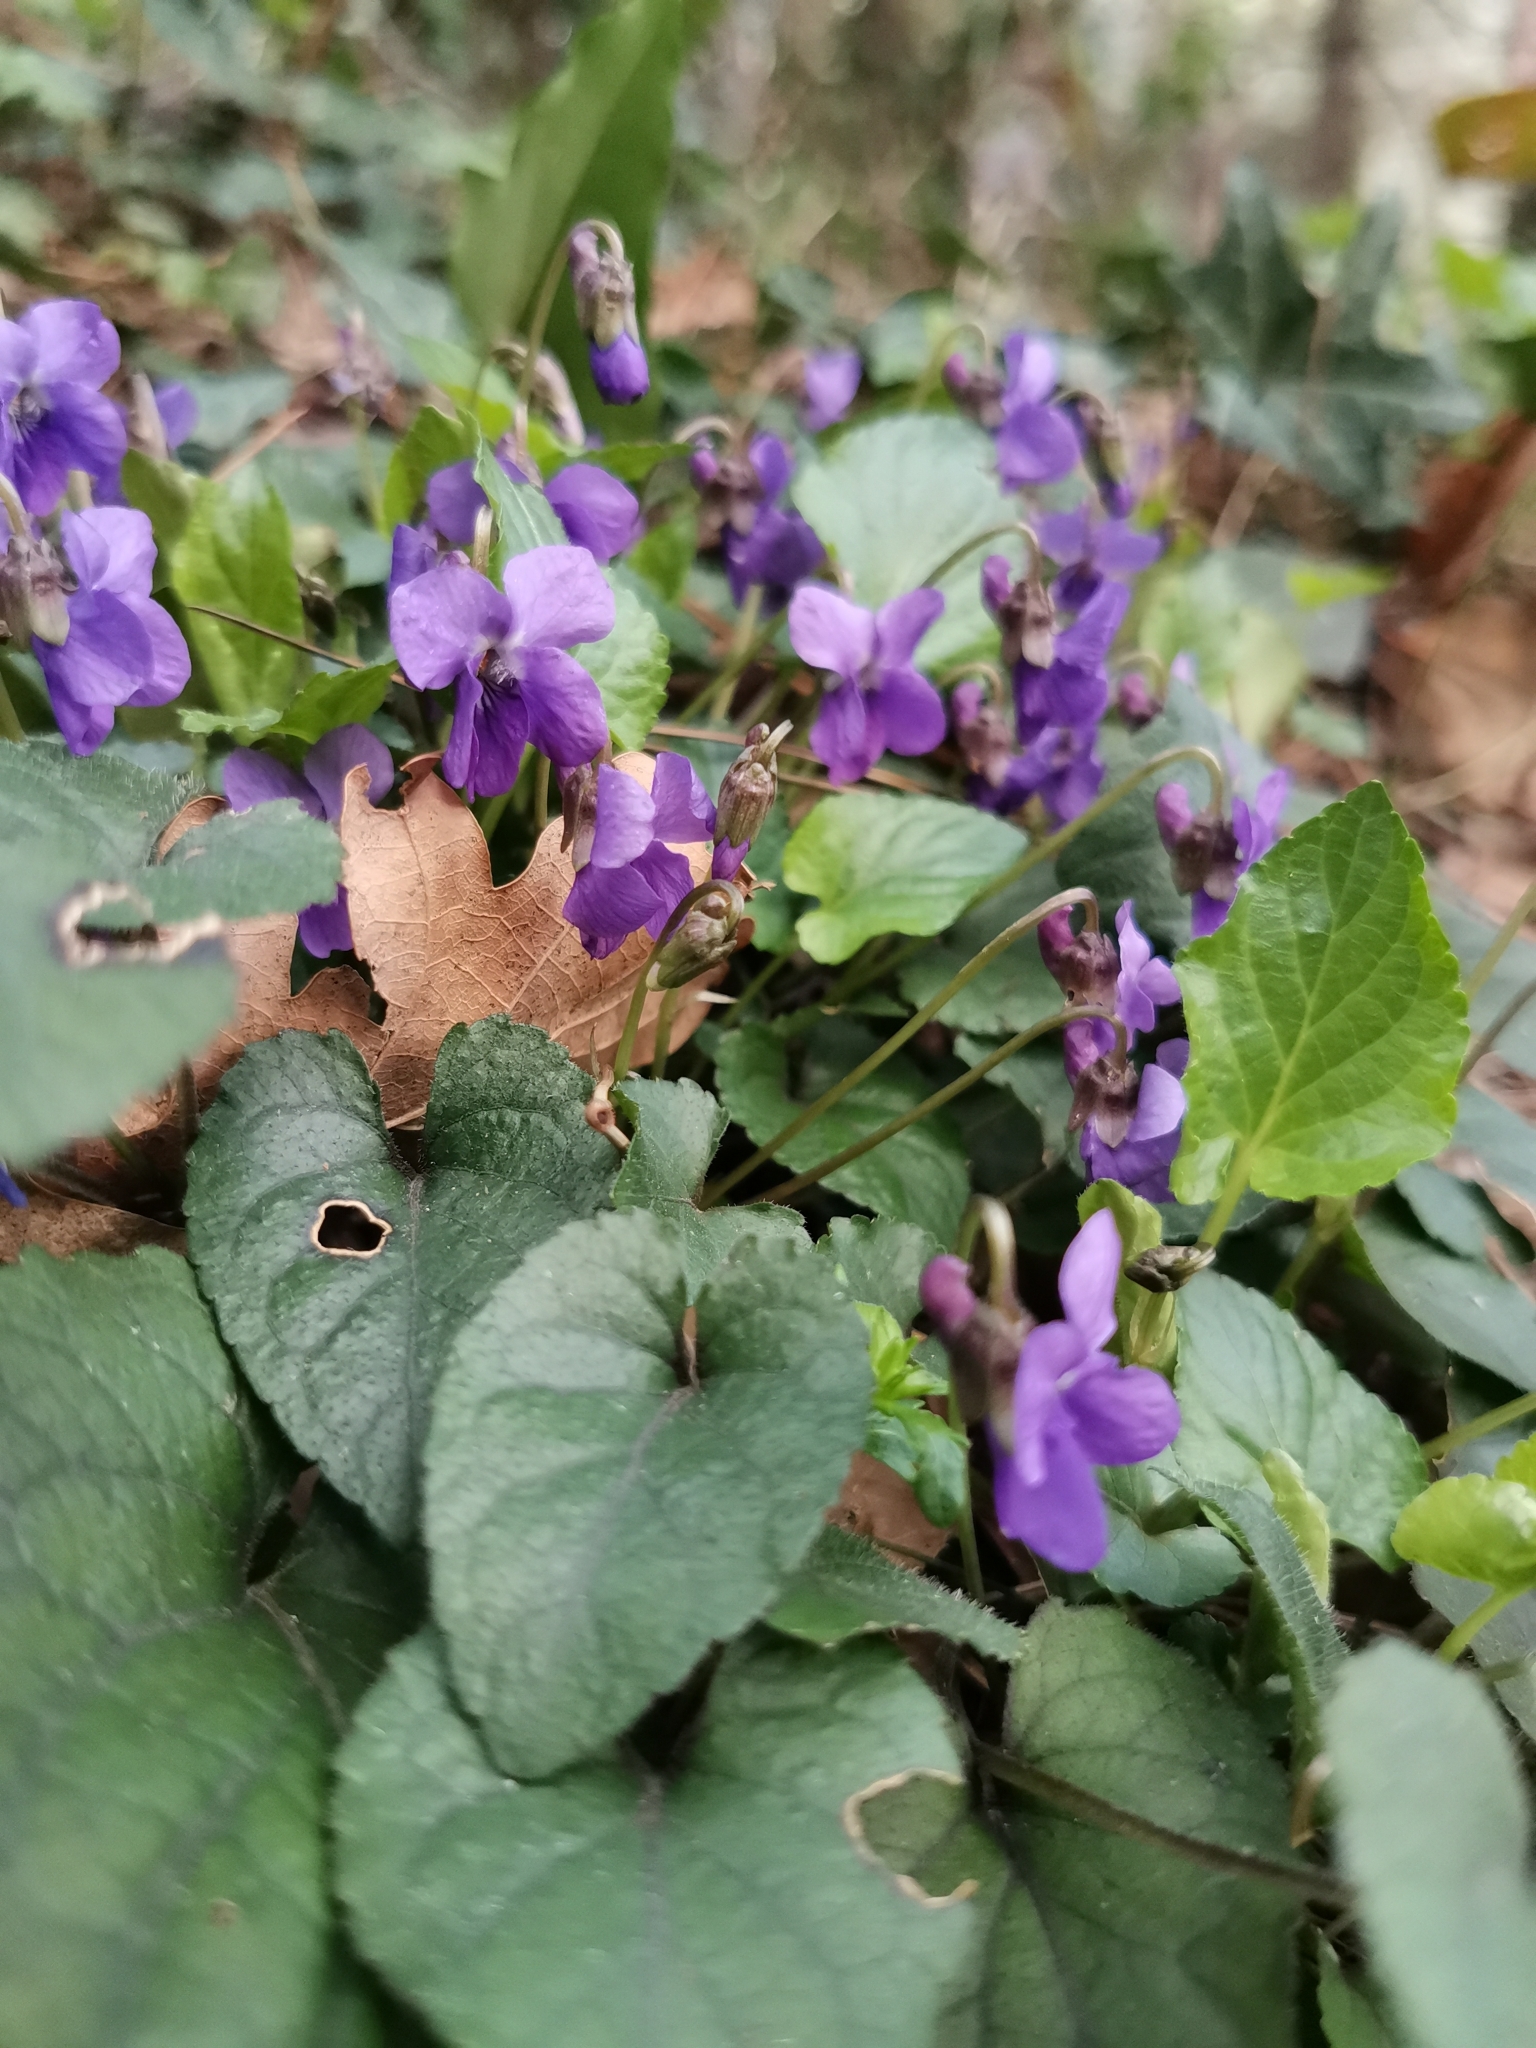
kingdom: Plantae
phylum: Tracheophyta
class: Magnoliopsida
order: Malpighiales
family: Violaceae
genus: Viola
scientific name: Viola alba
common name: White violet
